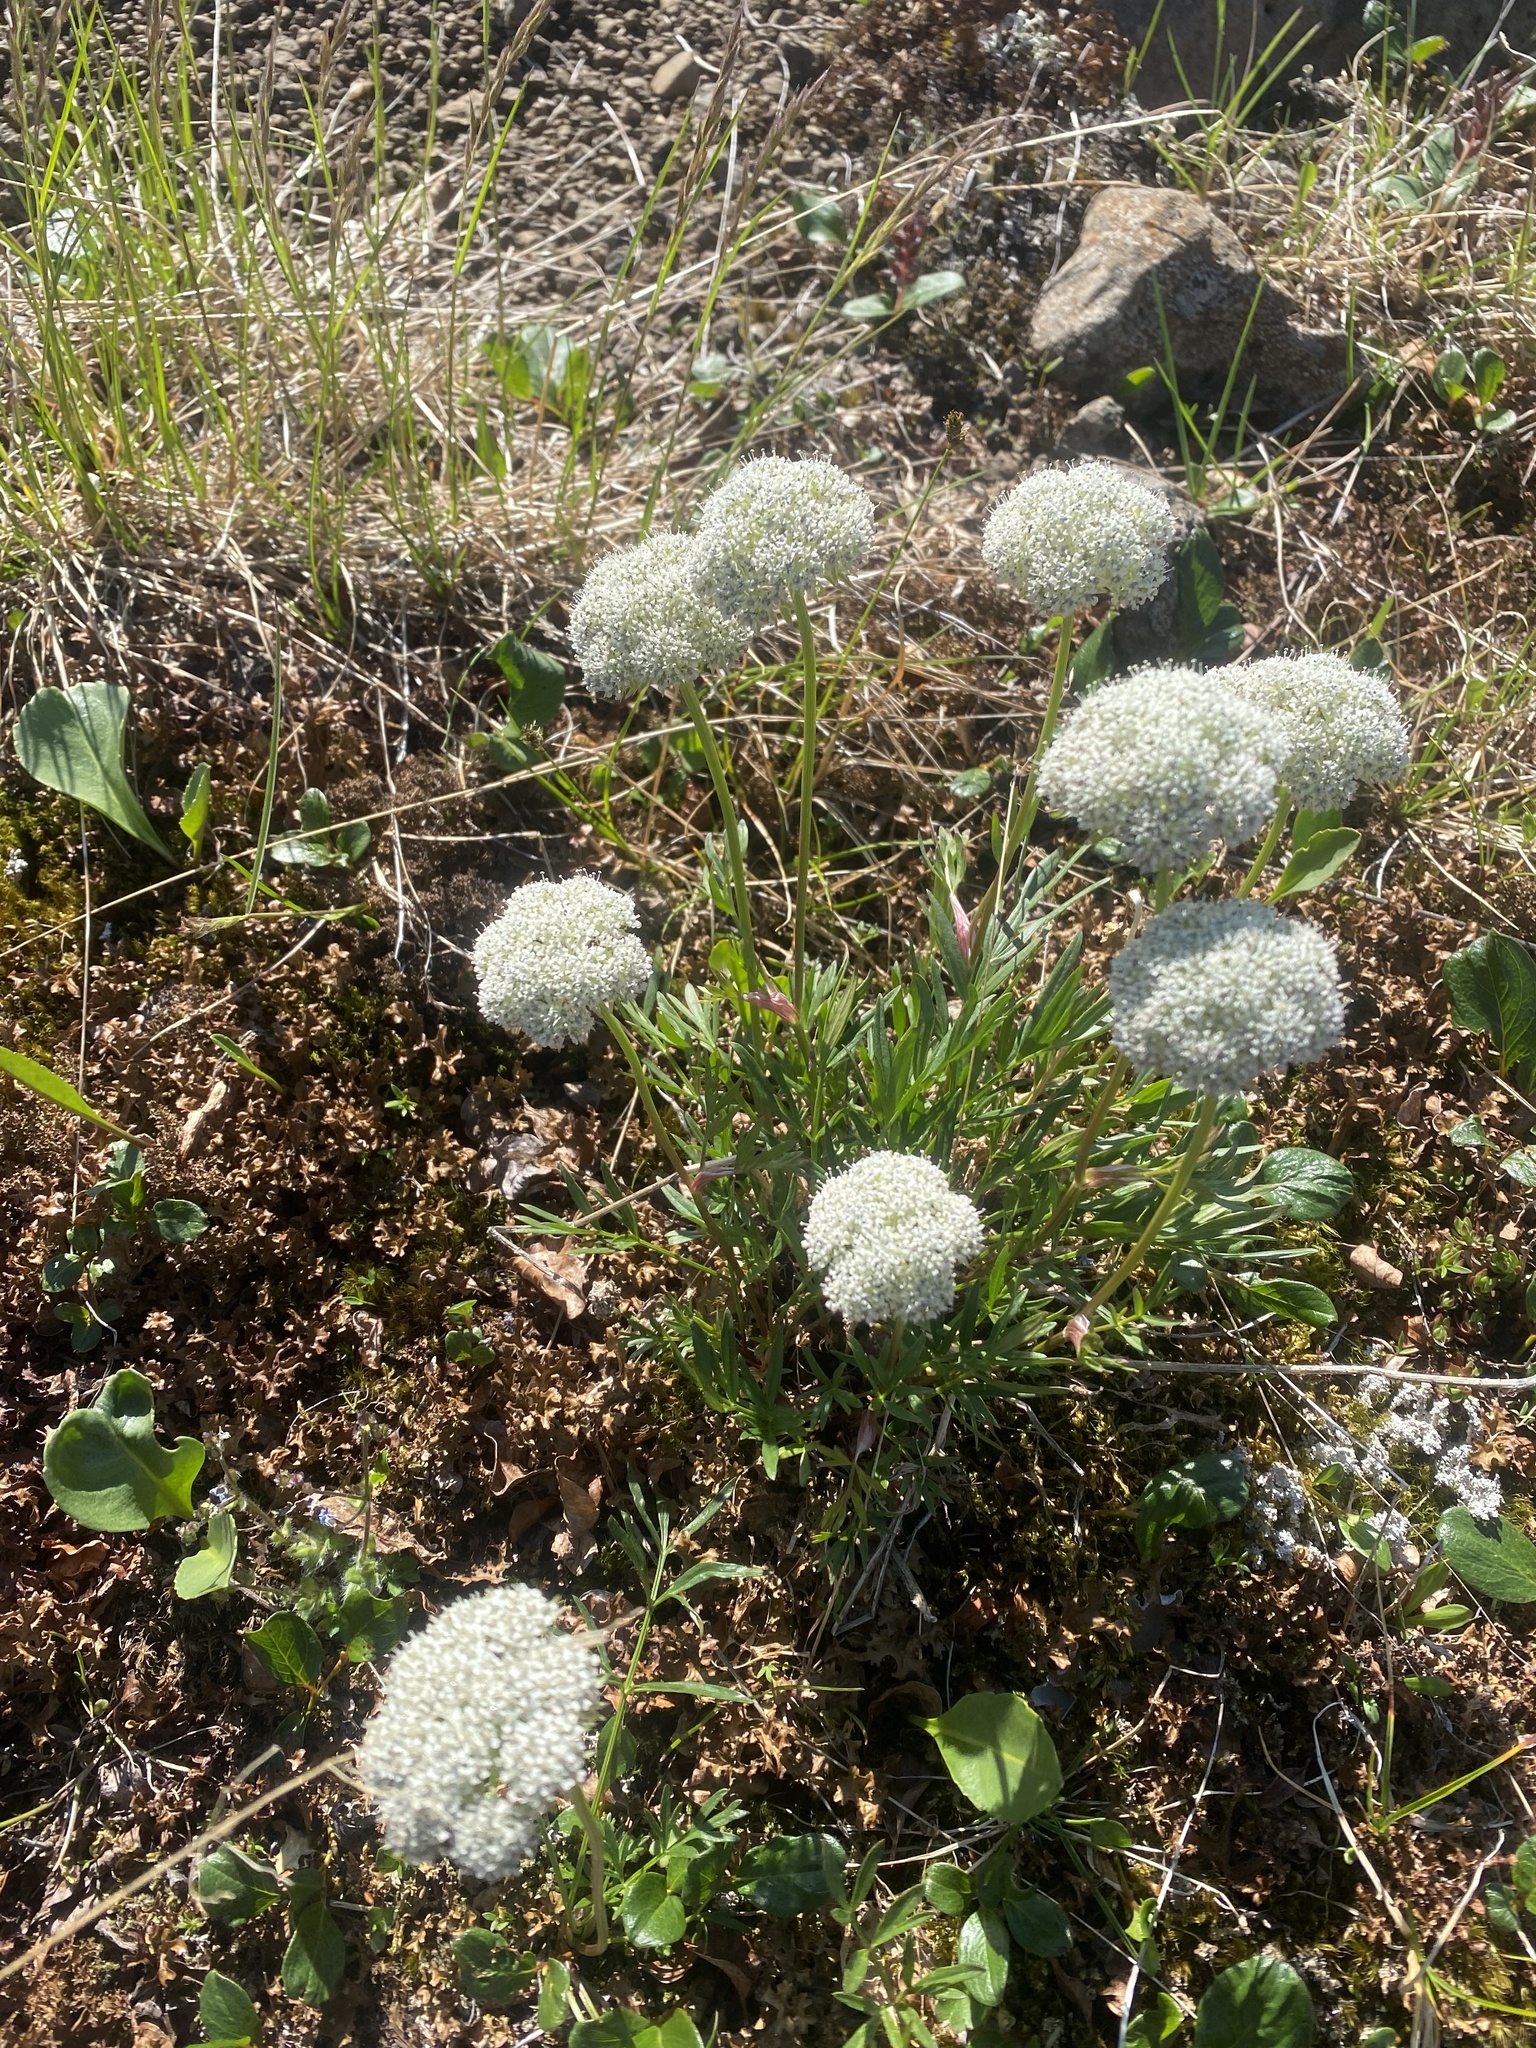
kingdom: Plantae
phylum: Tracheophyta
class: Magnoliopsida
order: Apiales
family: Apiaceae
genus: Pachypleurum
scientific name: Pachypleurum mutellinoides
